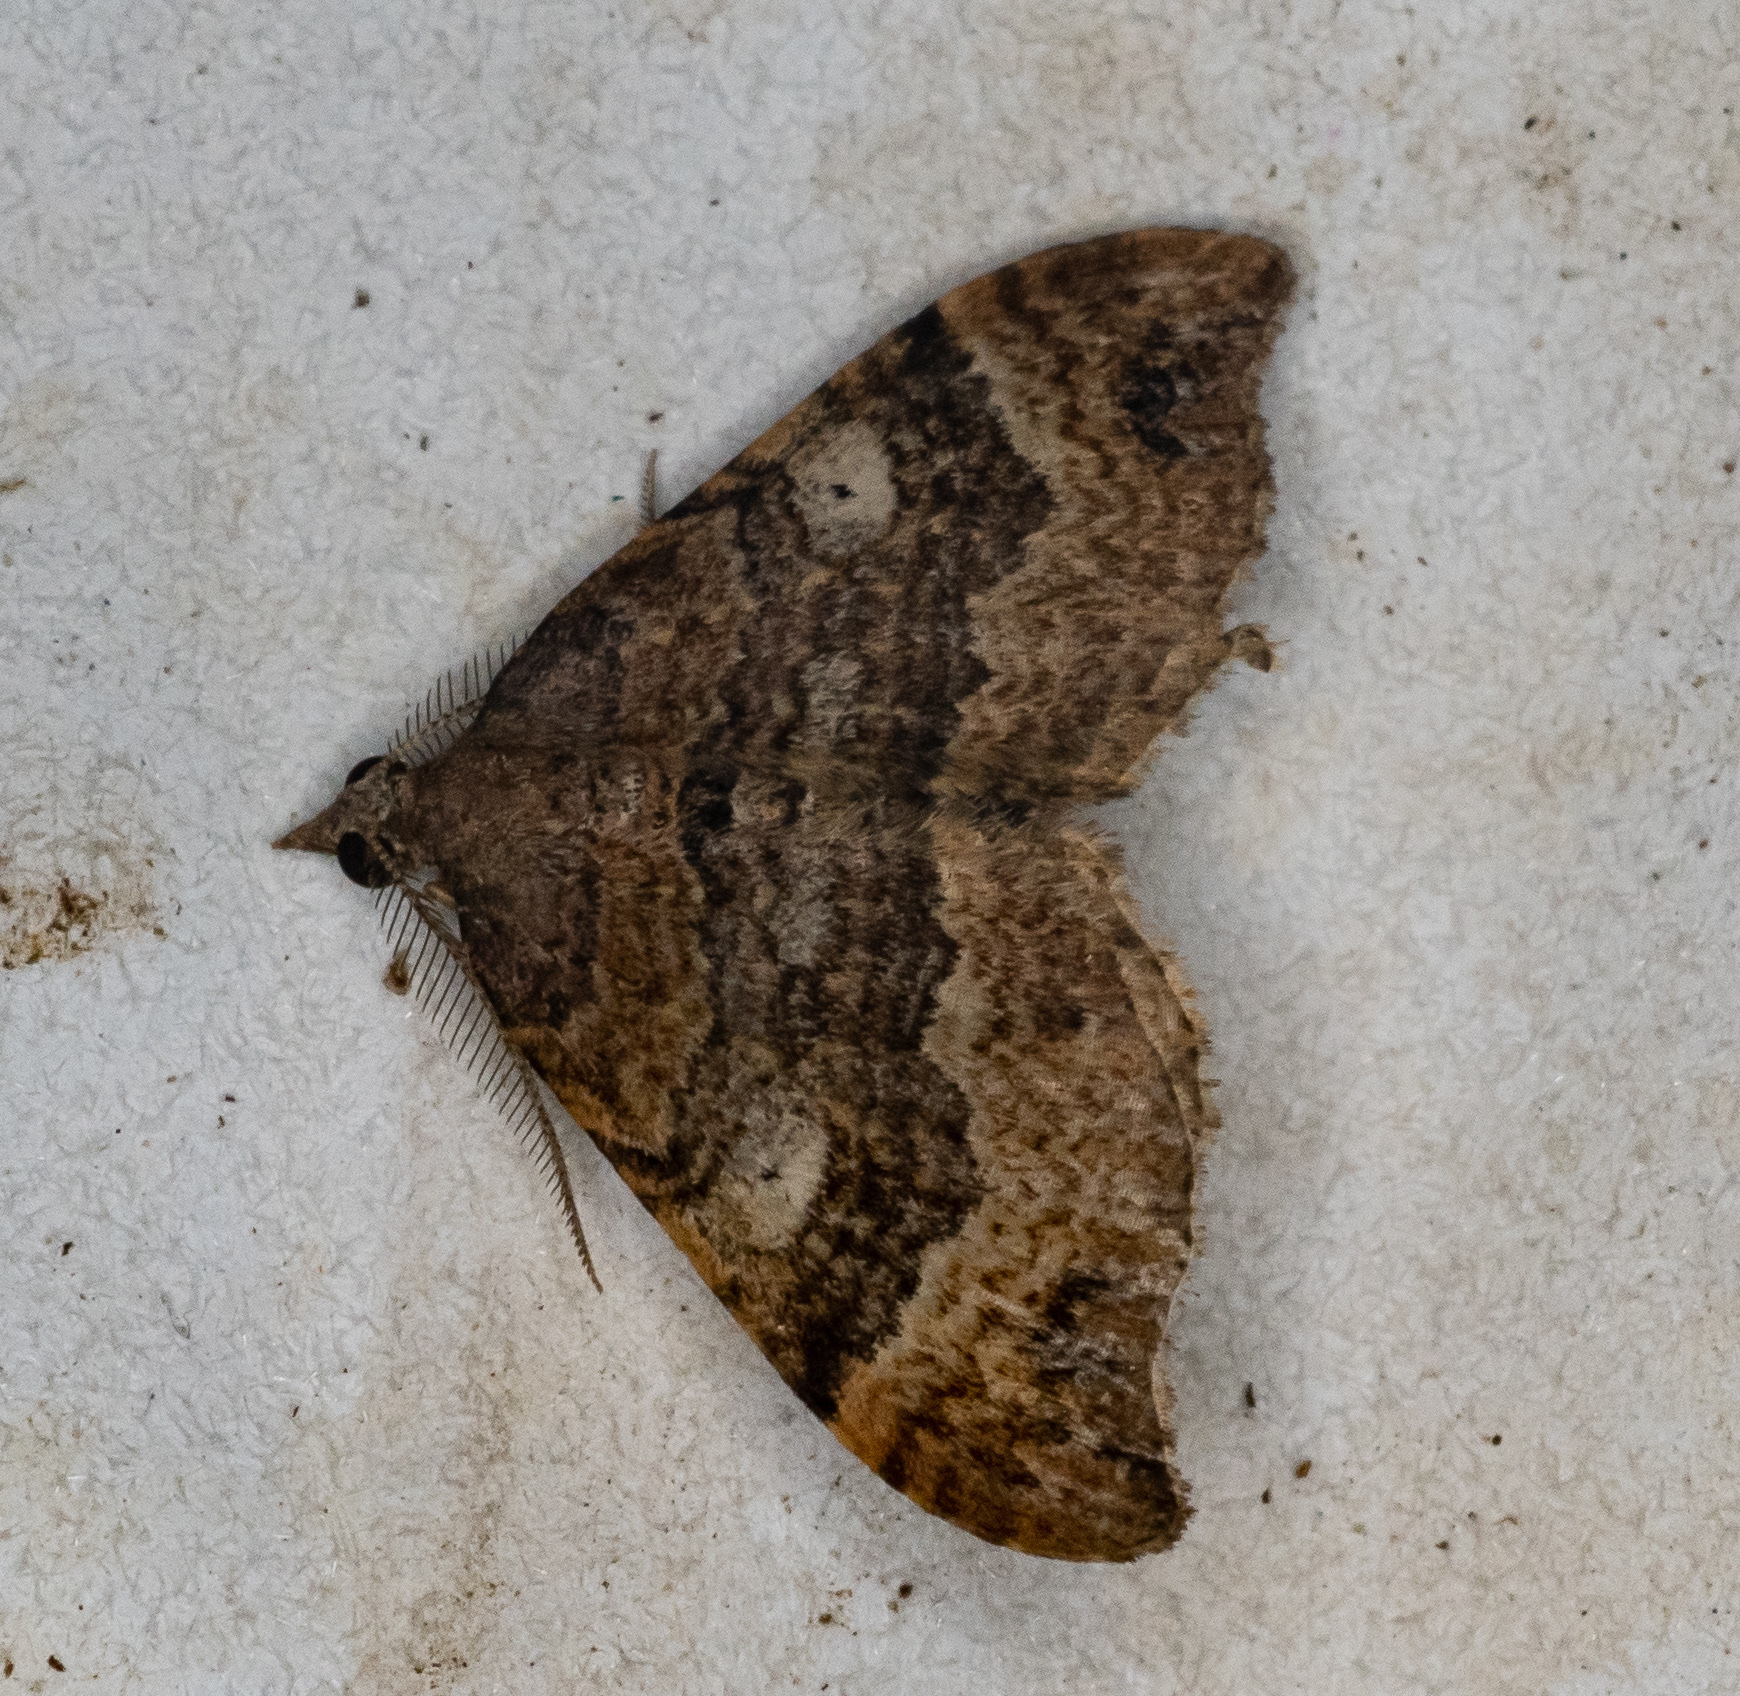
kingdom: Animalia
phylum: Arthropoda
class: Insecta
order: Lepidoptera
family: Geometridae
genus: Homodotis
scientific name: Homodotis megaspilata
